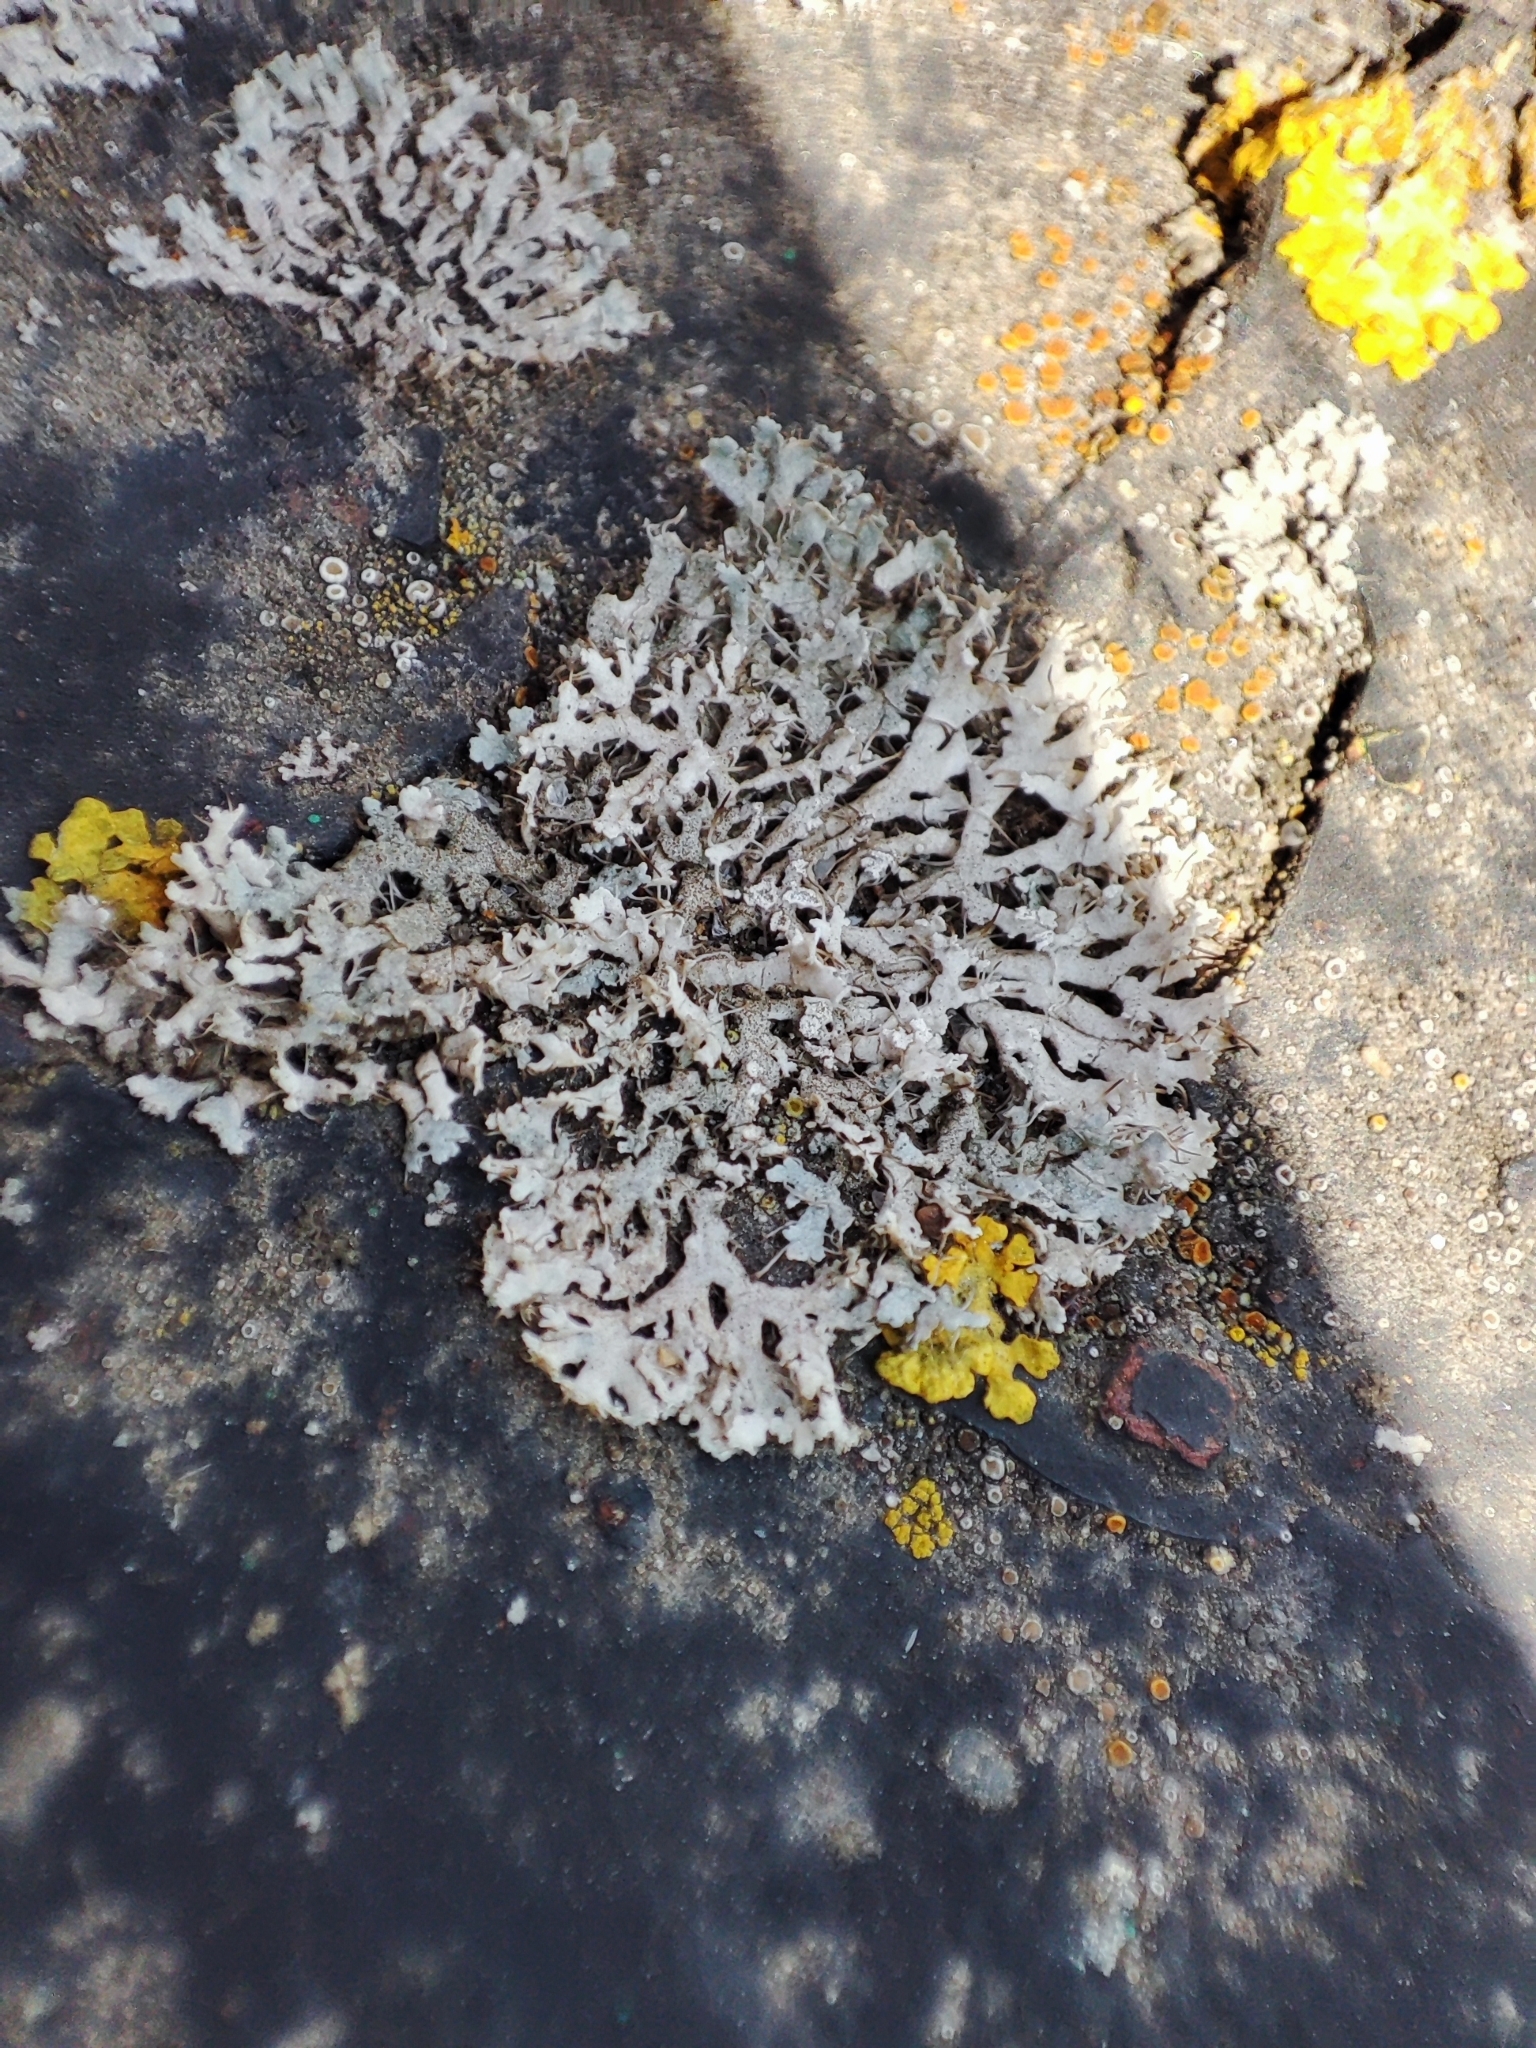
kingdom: Fungi
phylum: Ascomycota
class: Lecanoromycetes
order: Caliciales
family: Physciaceae
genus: Physcia
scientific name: Physcia dimidiata
